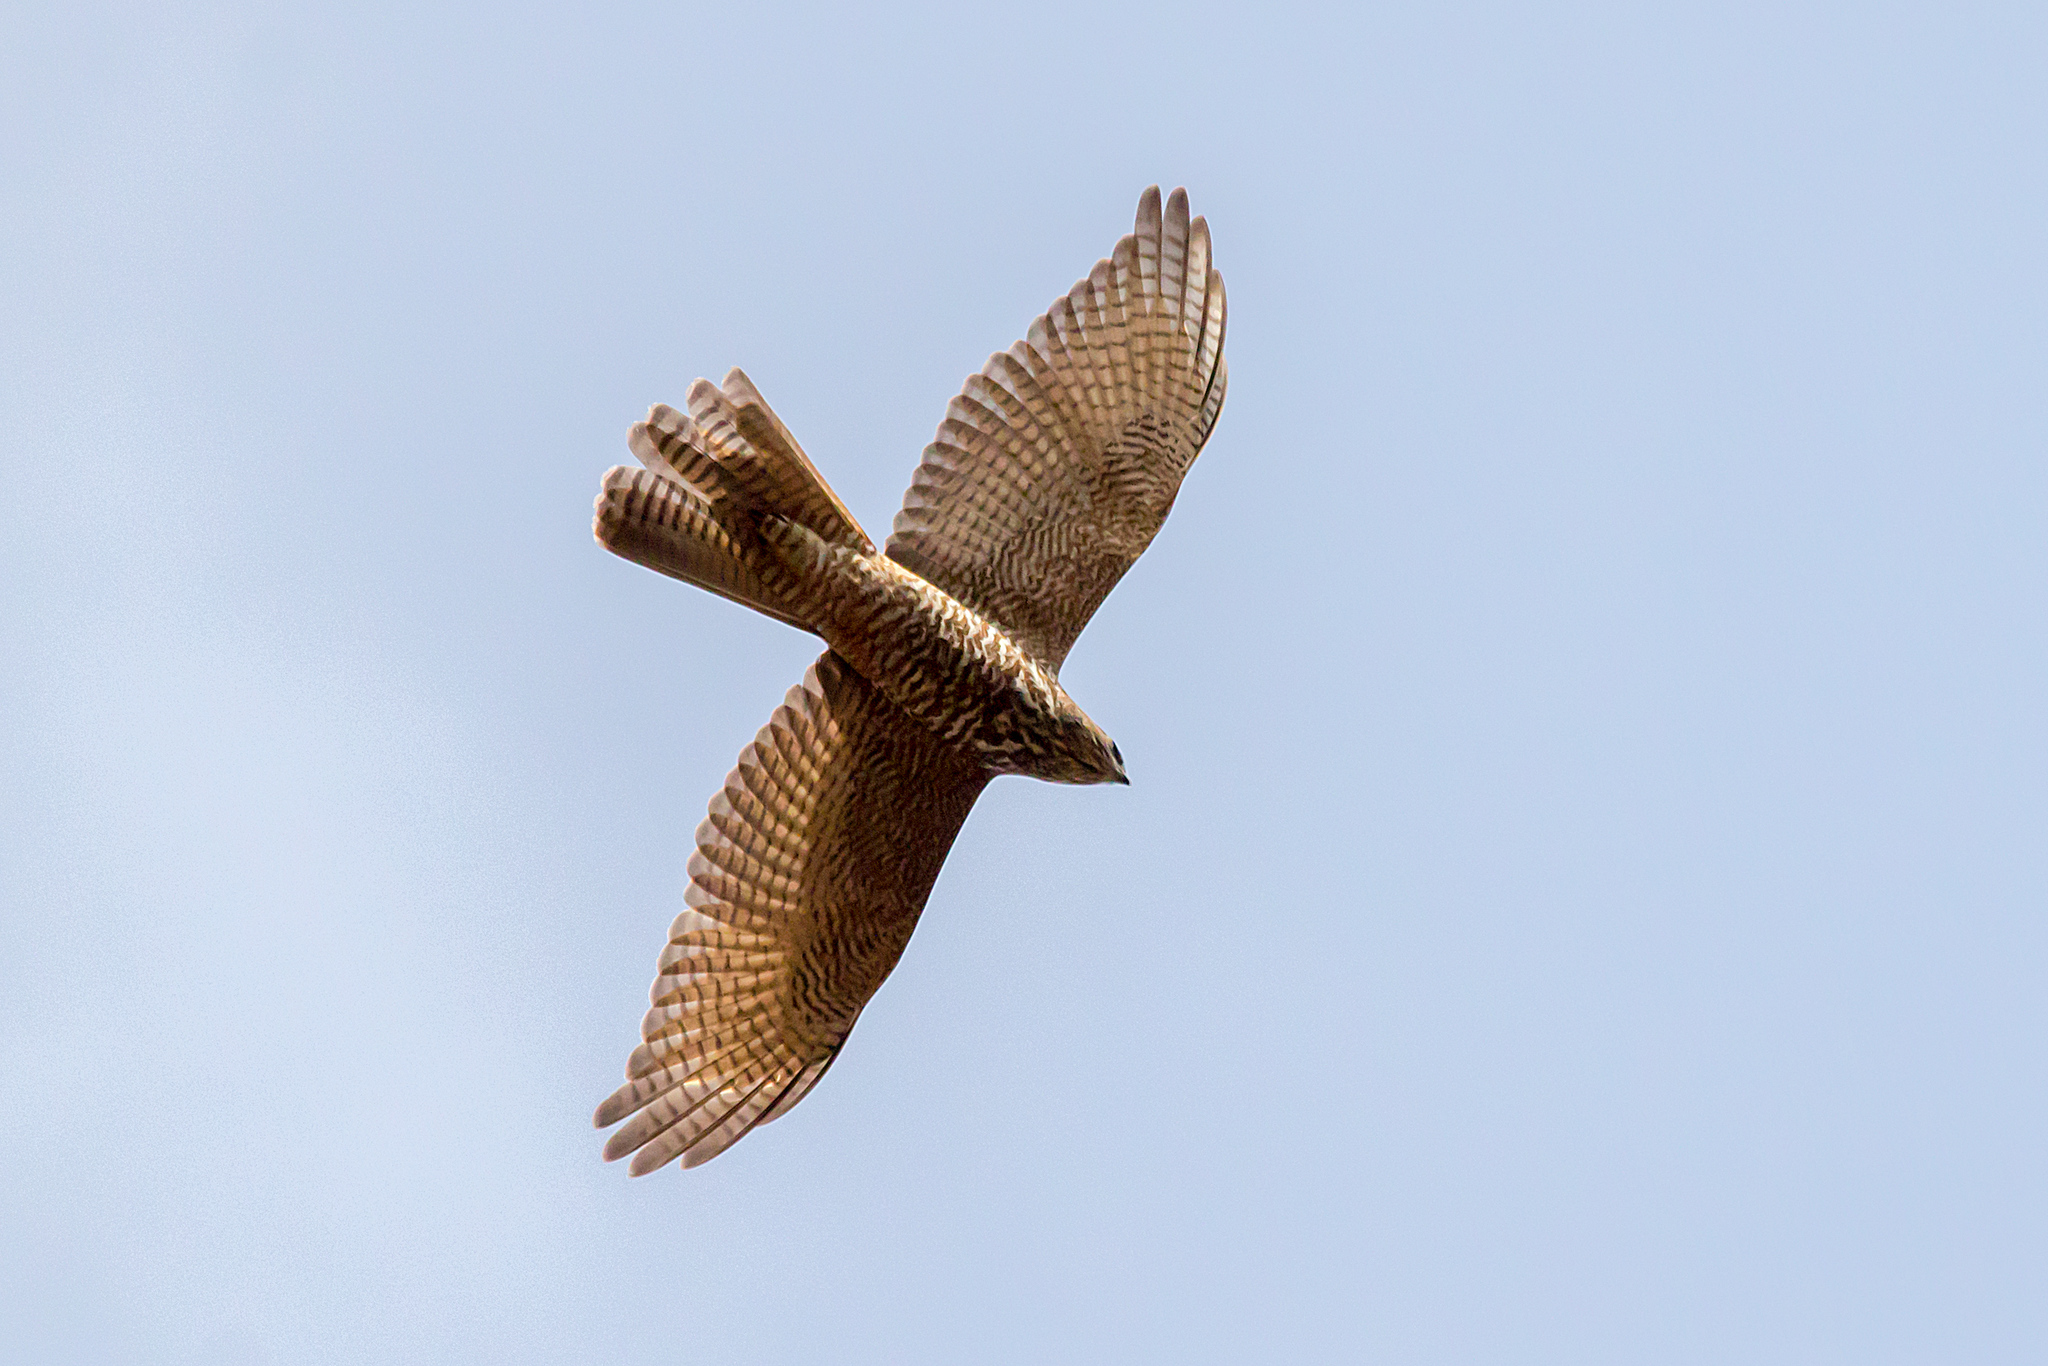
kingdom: Animalia
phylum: Chordata
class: Aves
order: Accipitriformes
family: Accipitridae
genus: Accipiter
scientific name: Accipiter fasciatus
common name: Brown goshawk
